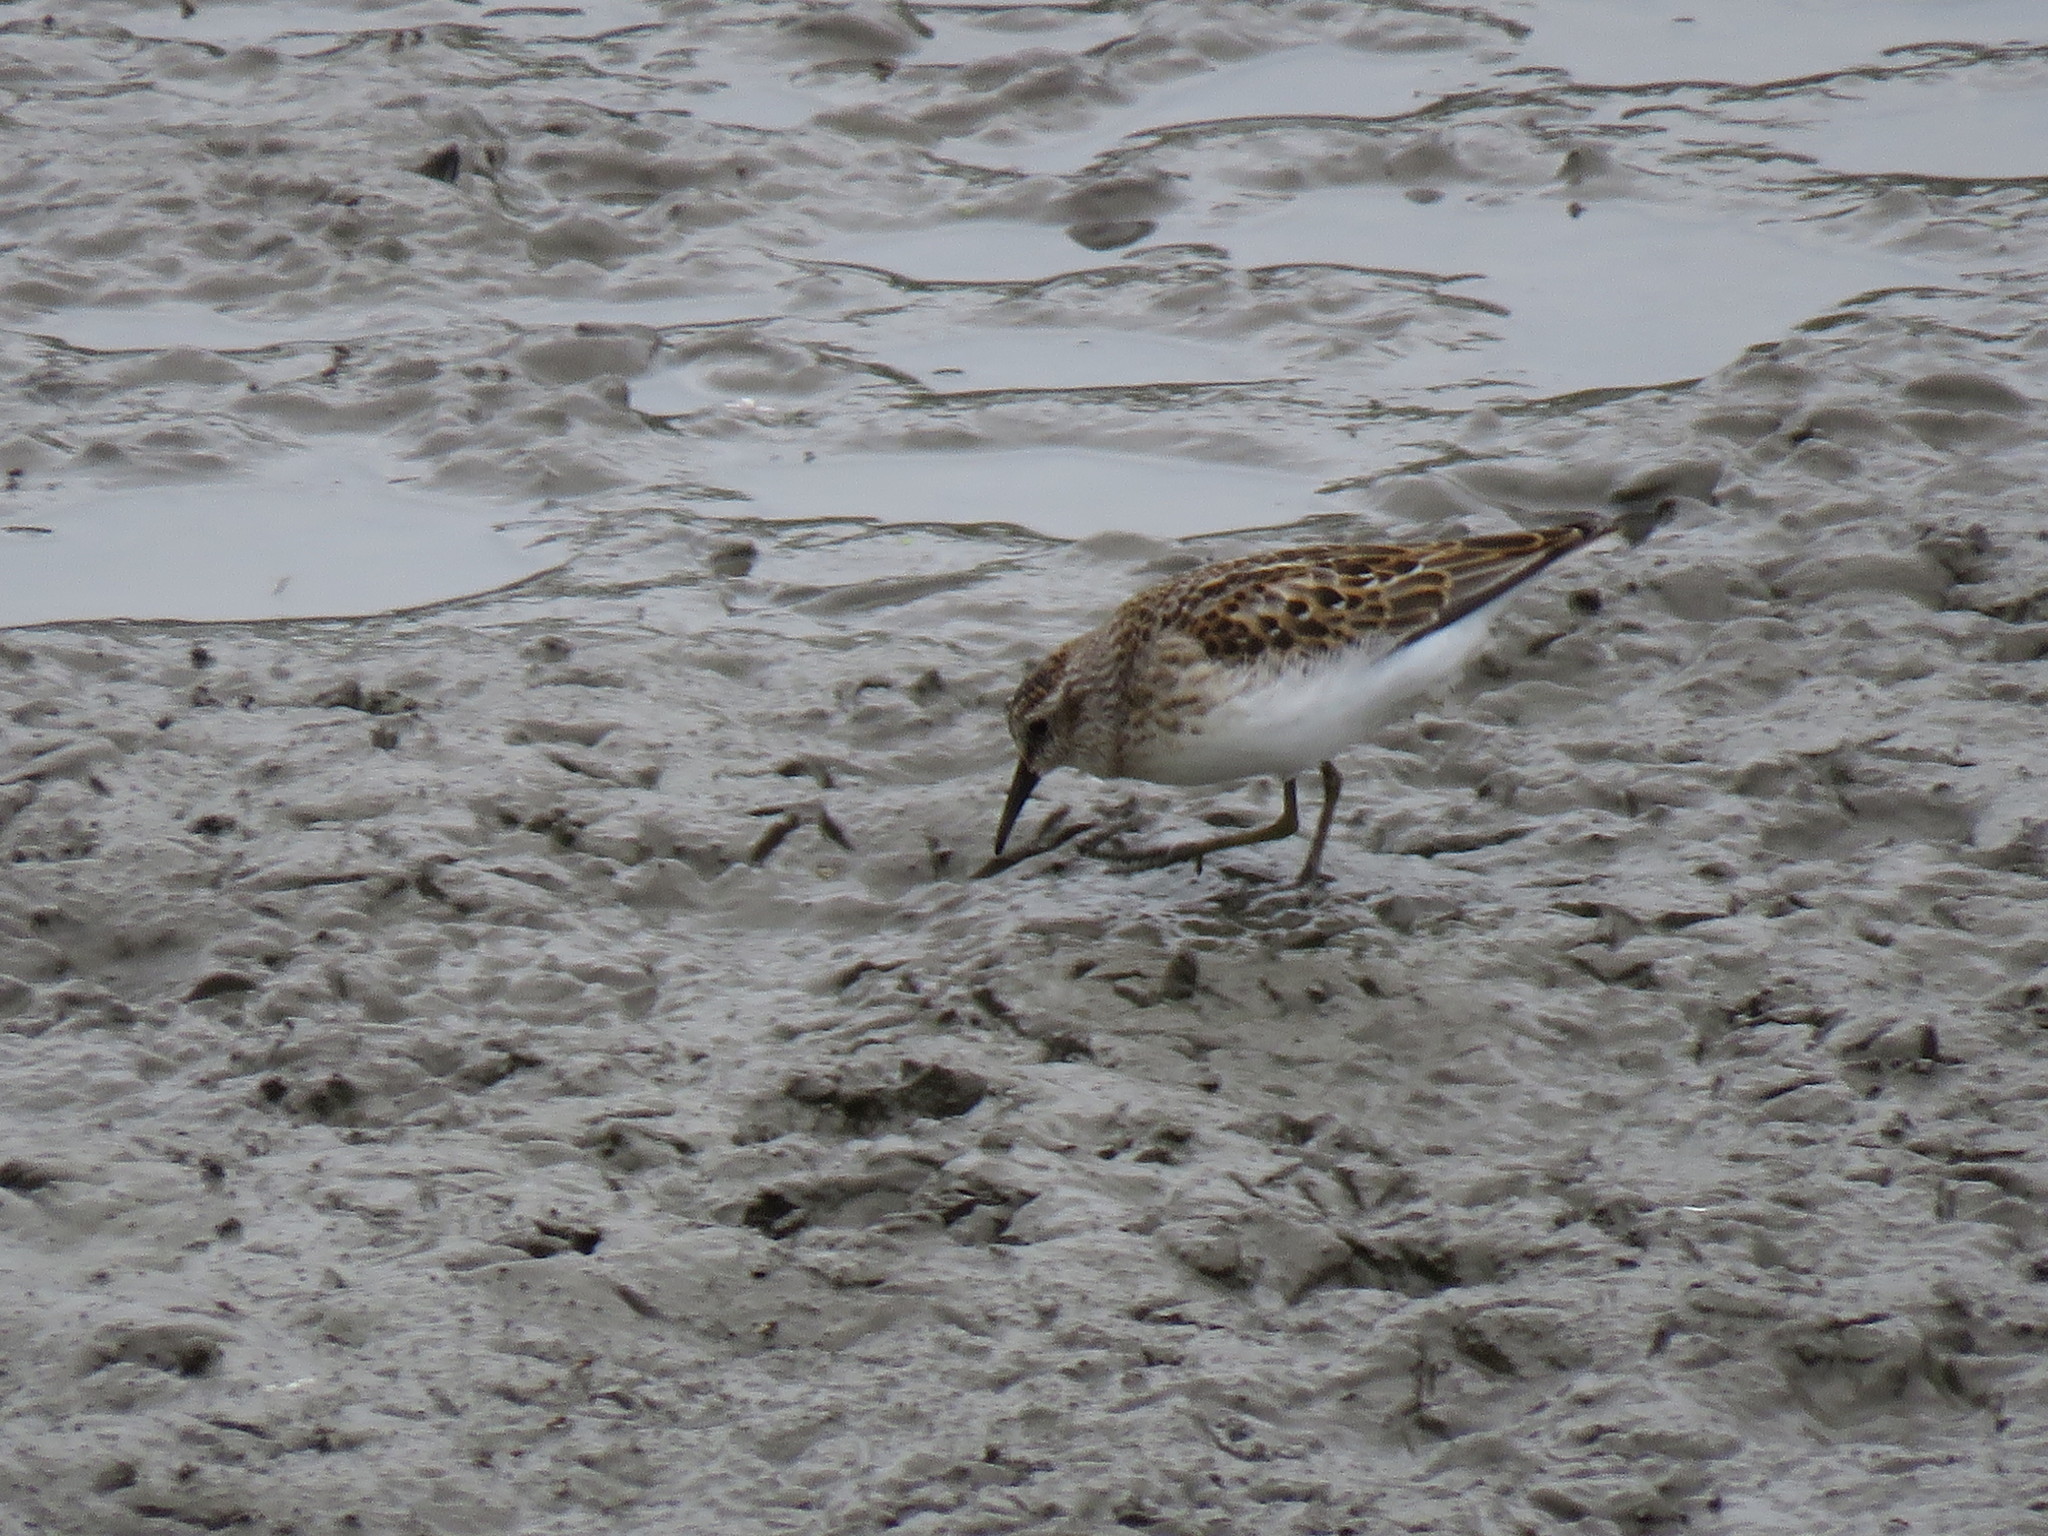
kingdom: Animalia
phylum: Chordata
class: Aves
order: Charadriiformes
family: Scolopacidae
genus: Calidris
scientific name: Calidris minutilla
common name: Least sandpiper
